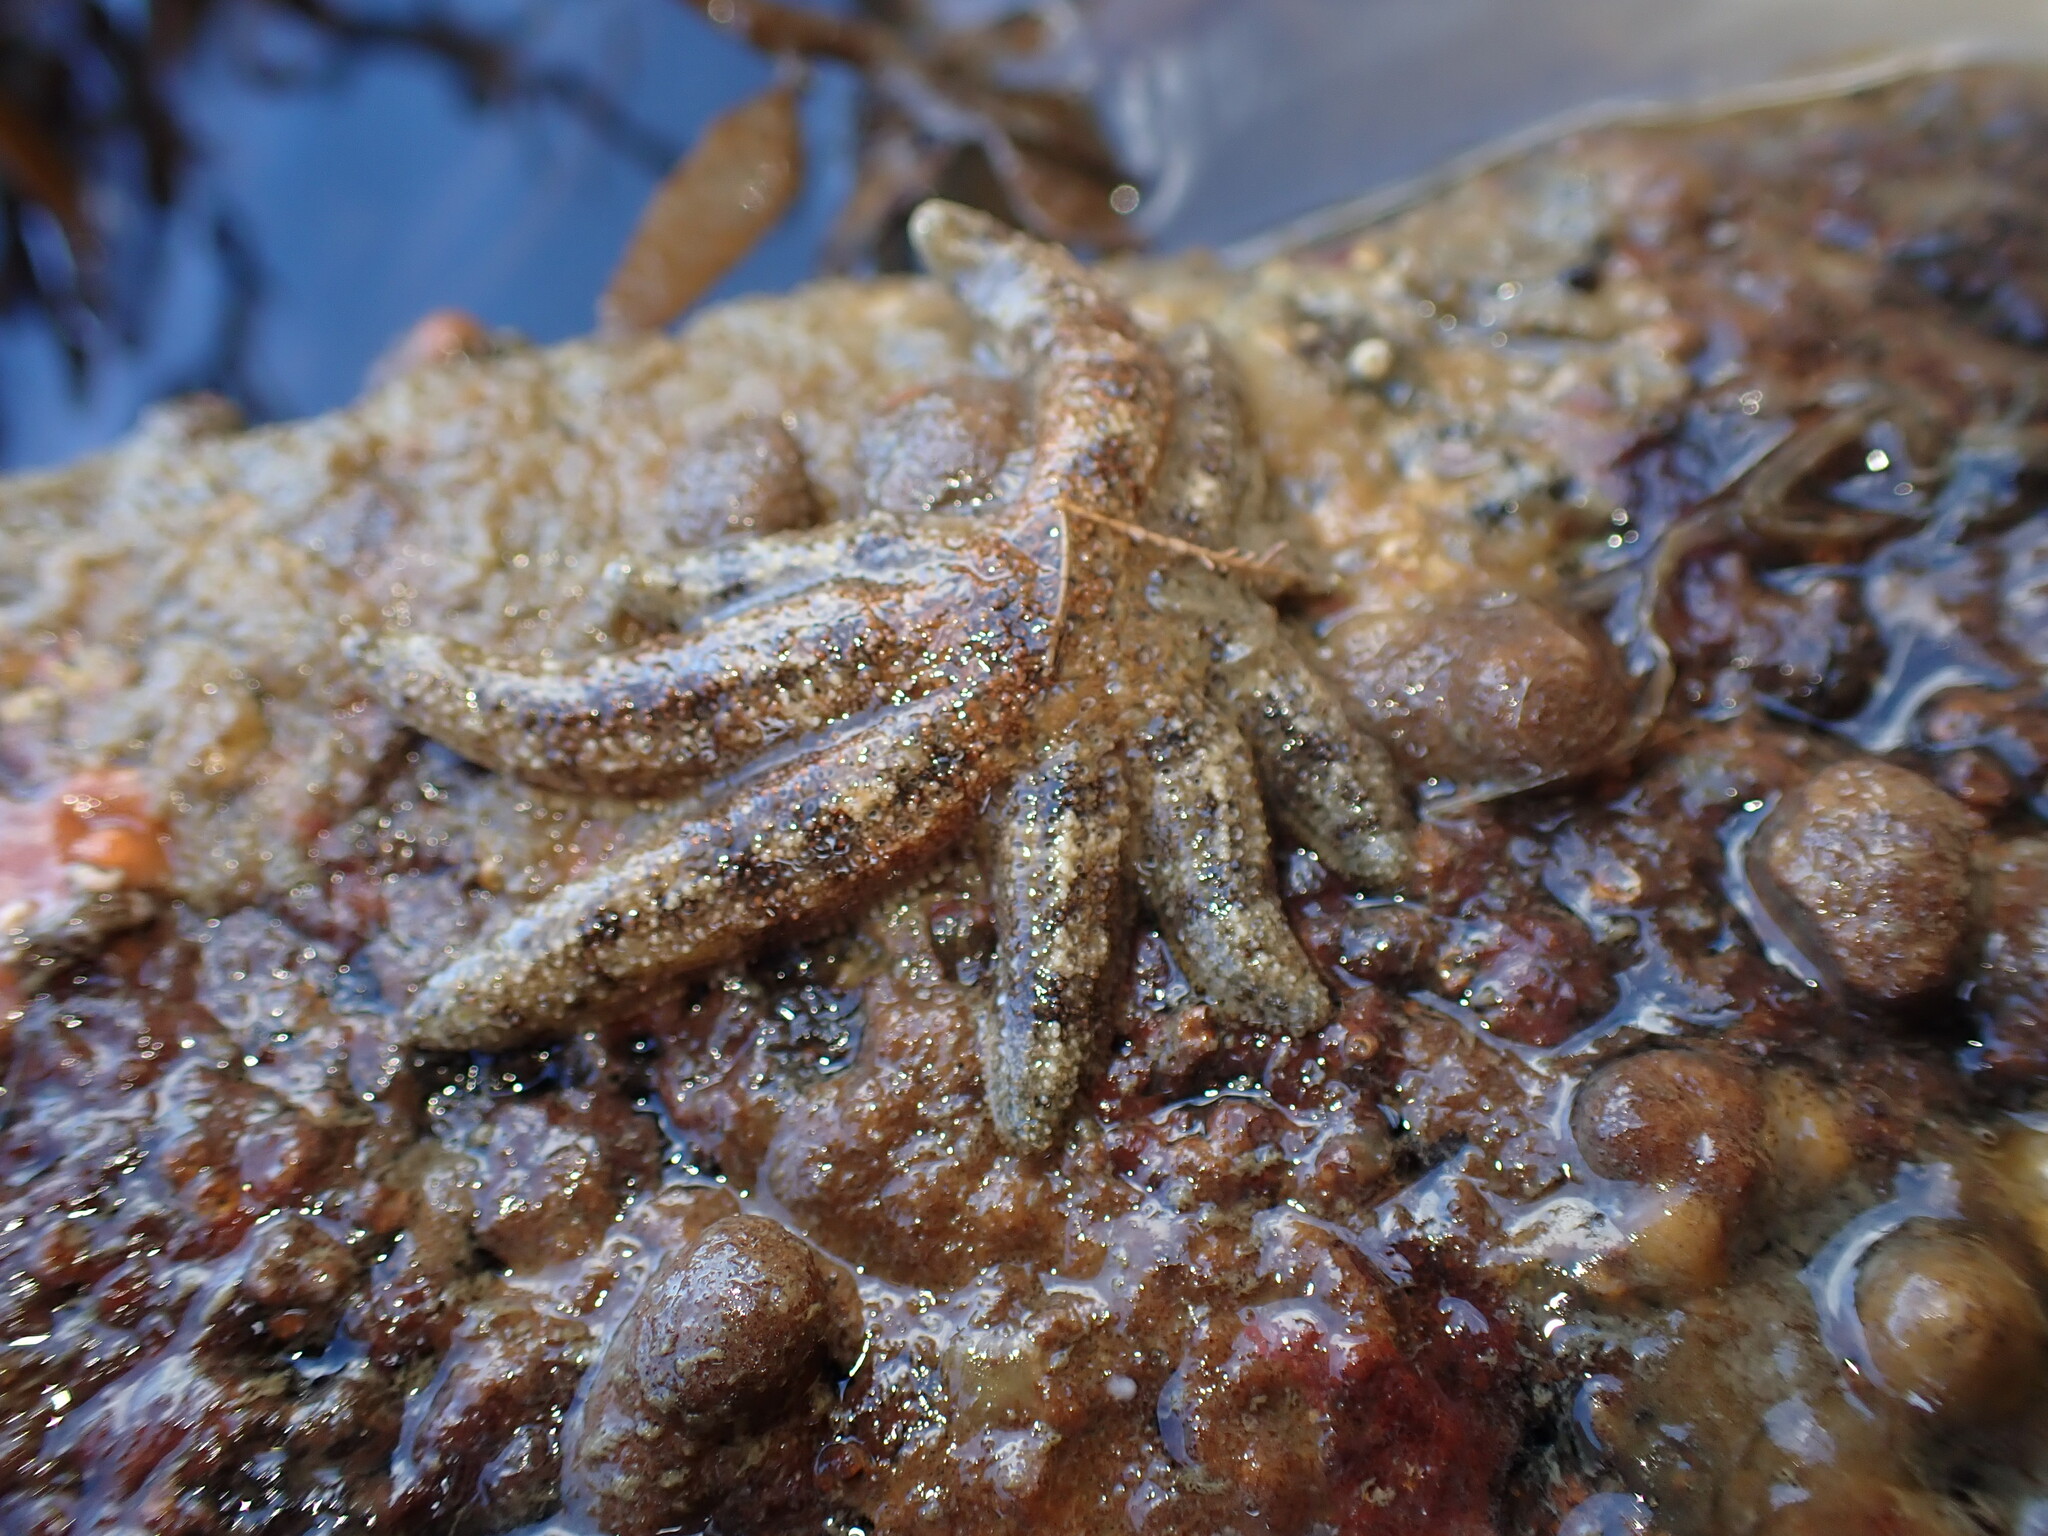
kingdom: Animalia
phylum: Echinodermata
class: Asteroidea
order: Forcipulatida
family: Stichasteridae
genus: Allostichaster
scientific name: Allostichaster polyplax
